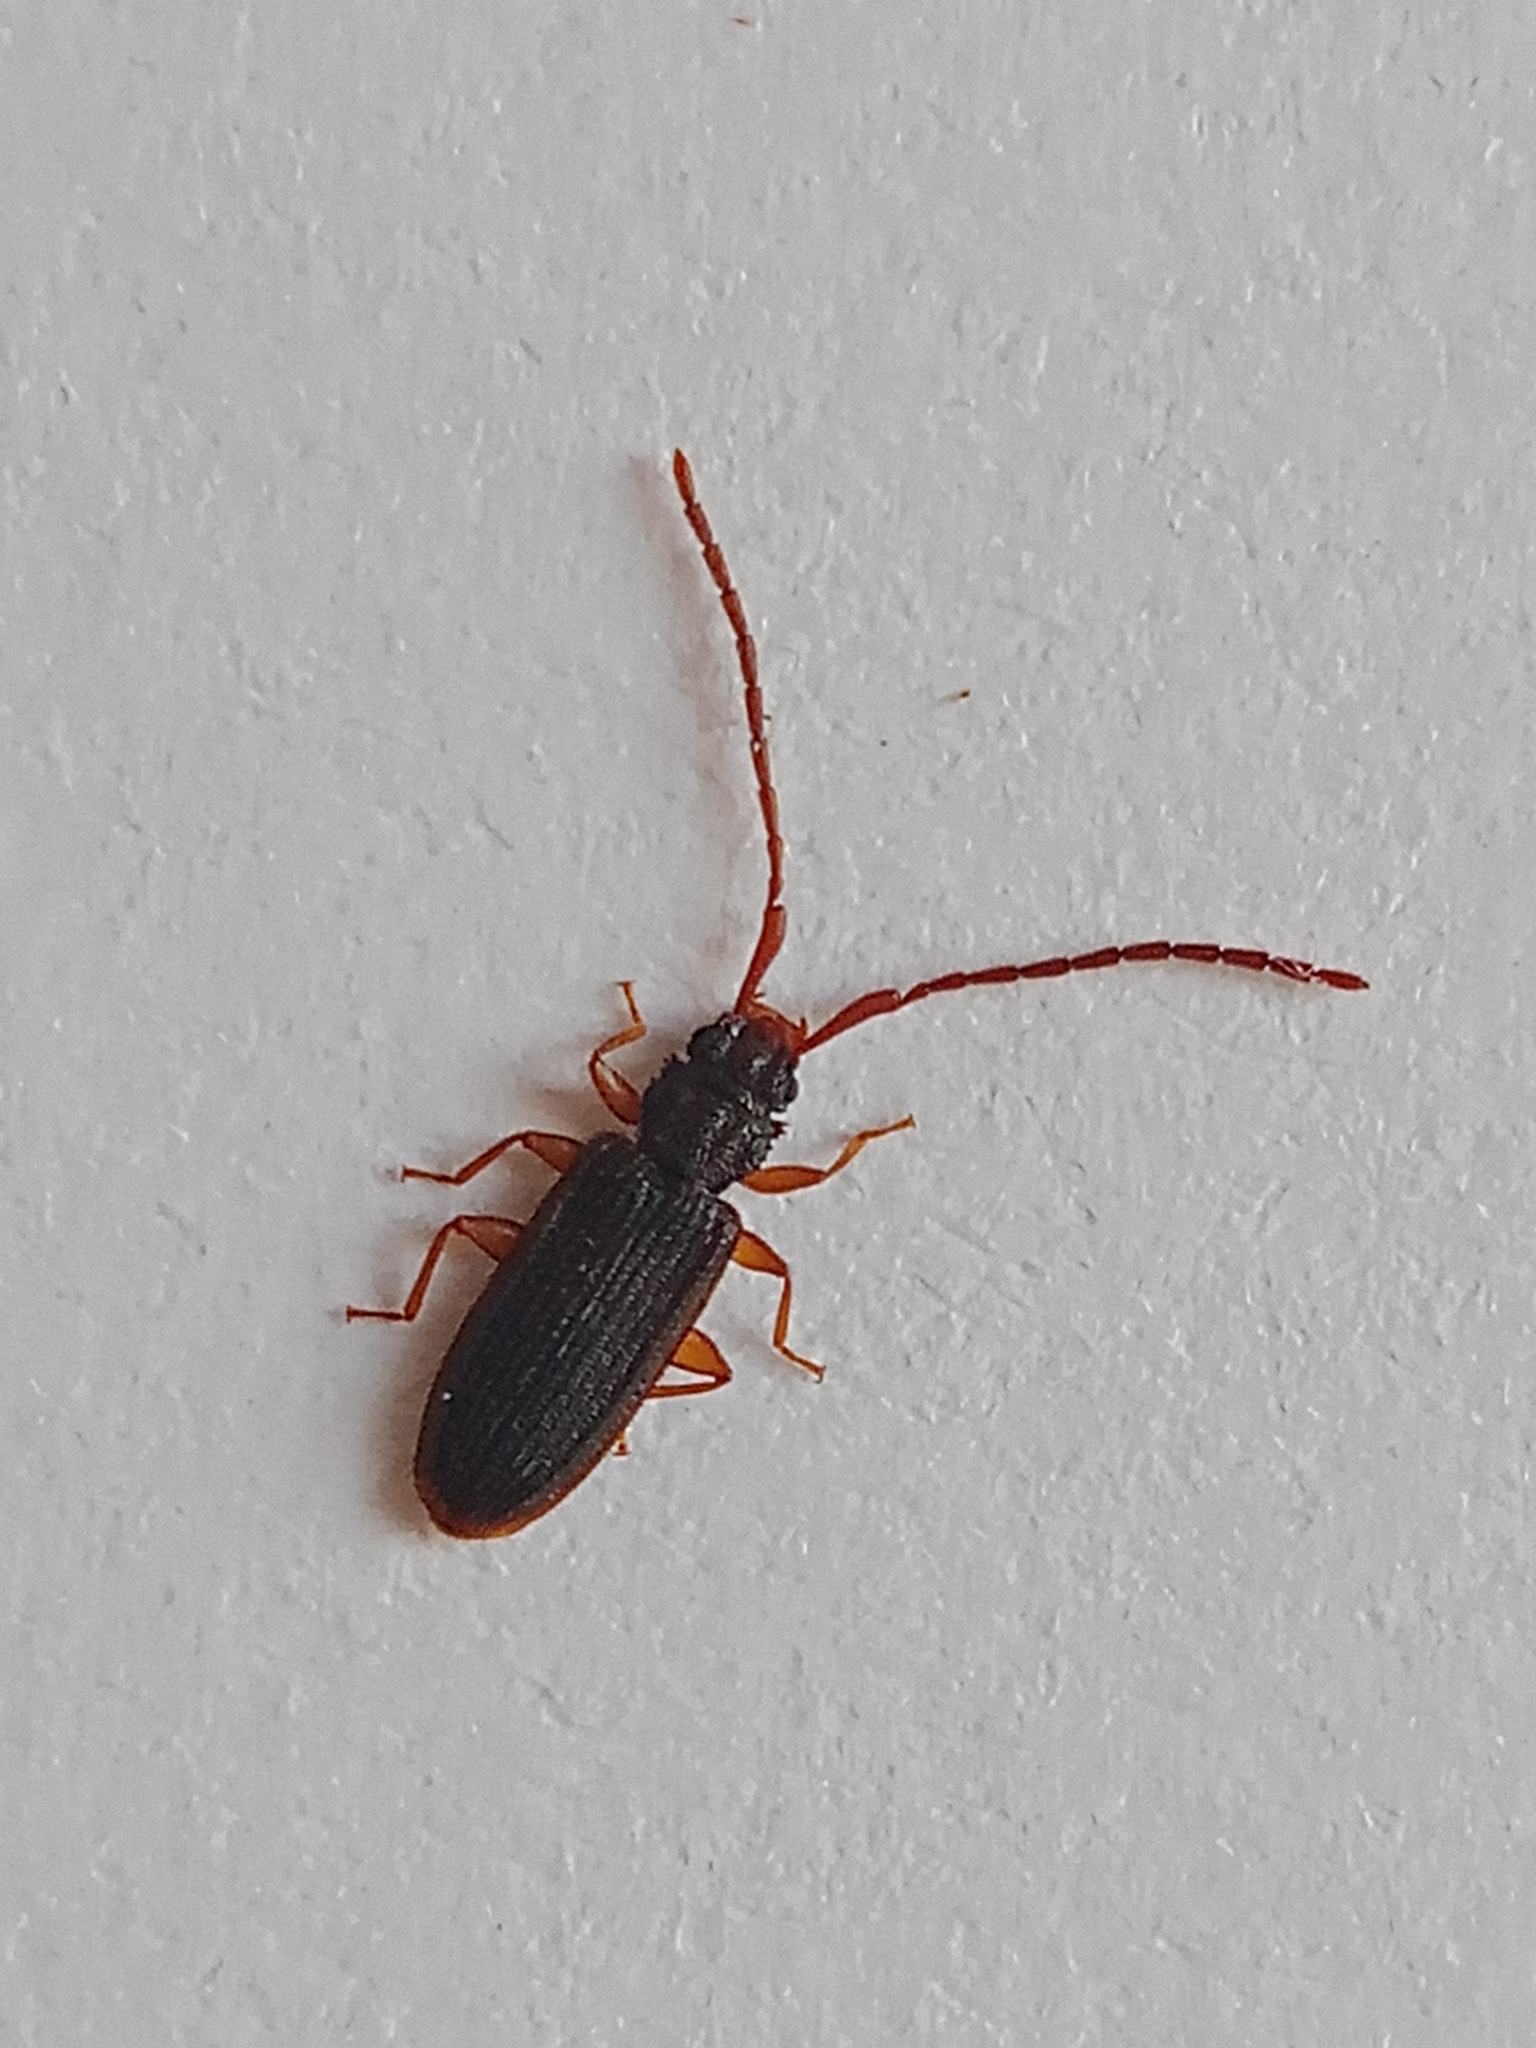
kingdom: Animalia
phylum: Arthropoda
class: Insecta
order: Coleoptera
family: Silvanidae
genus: Uleiota
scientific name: Uleiota planatus
